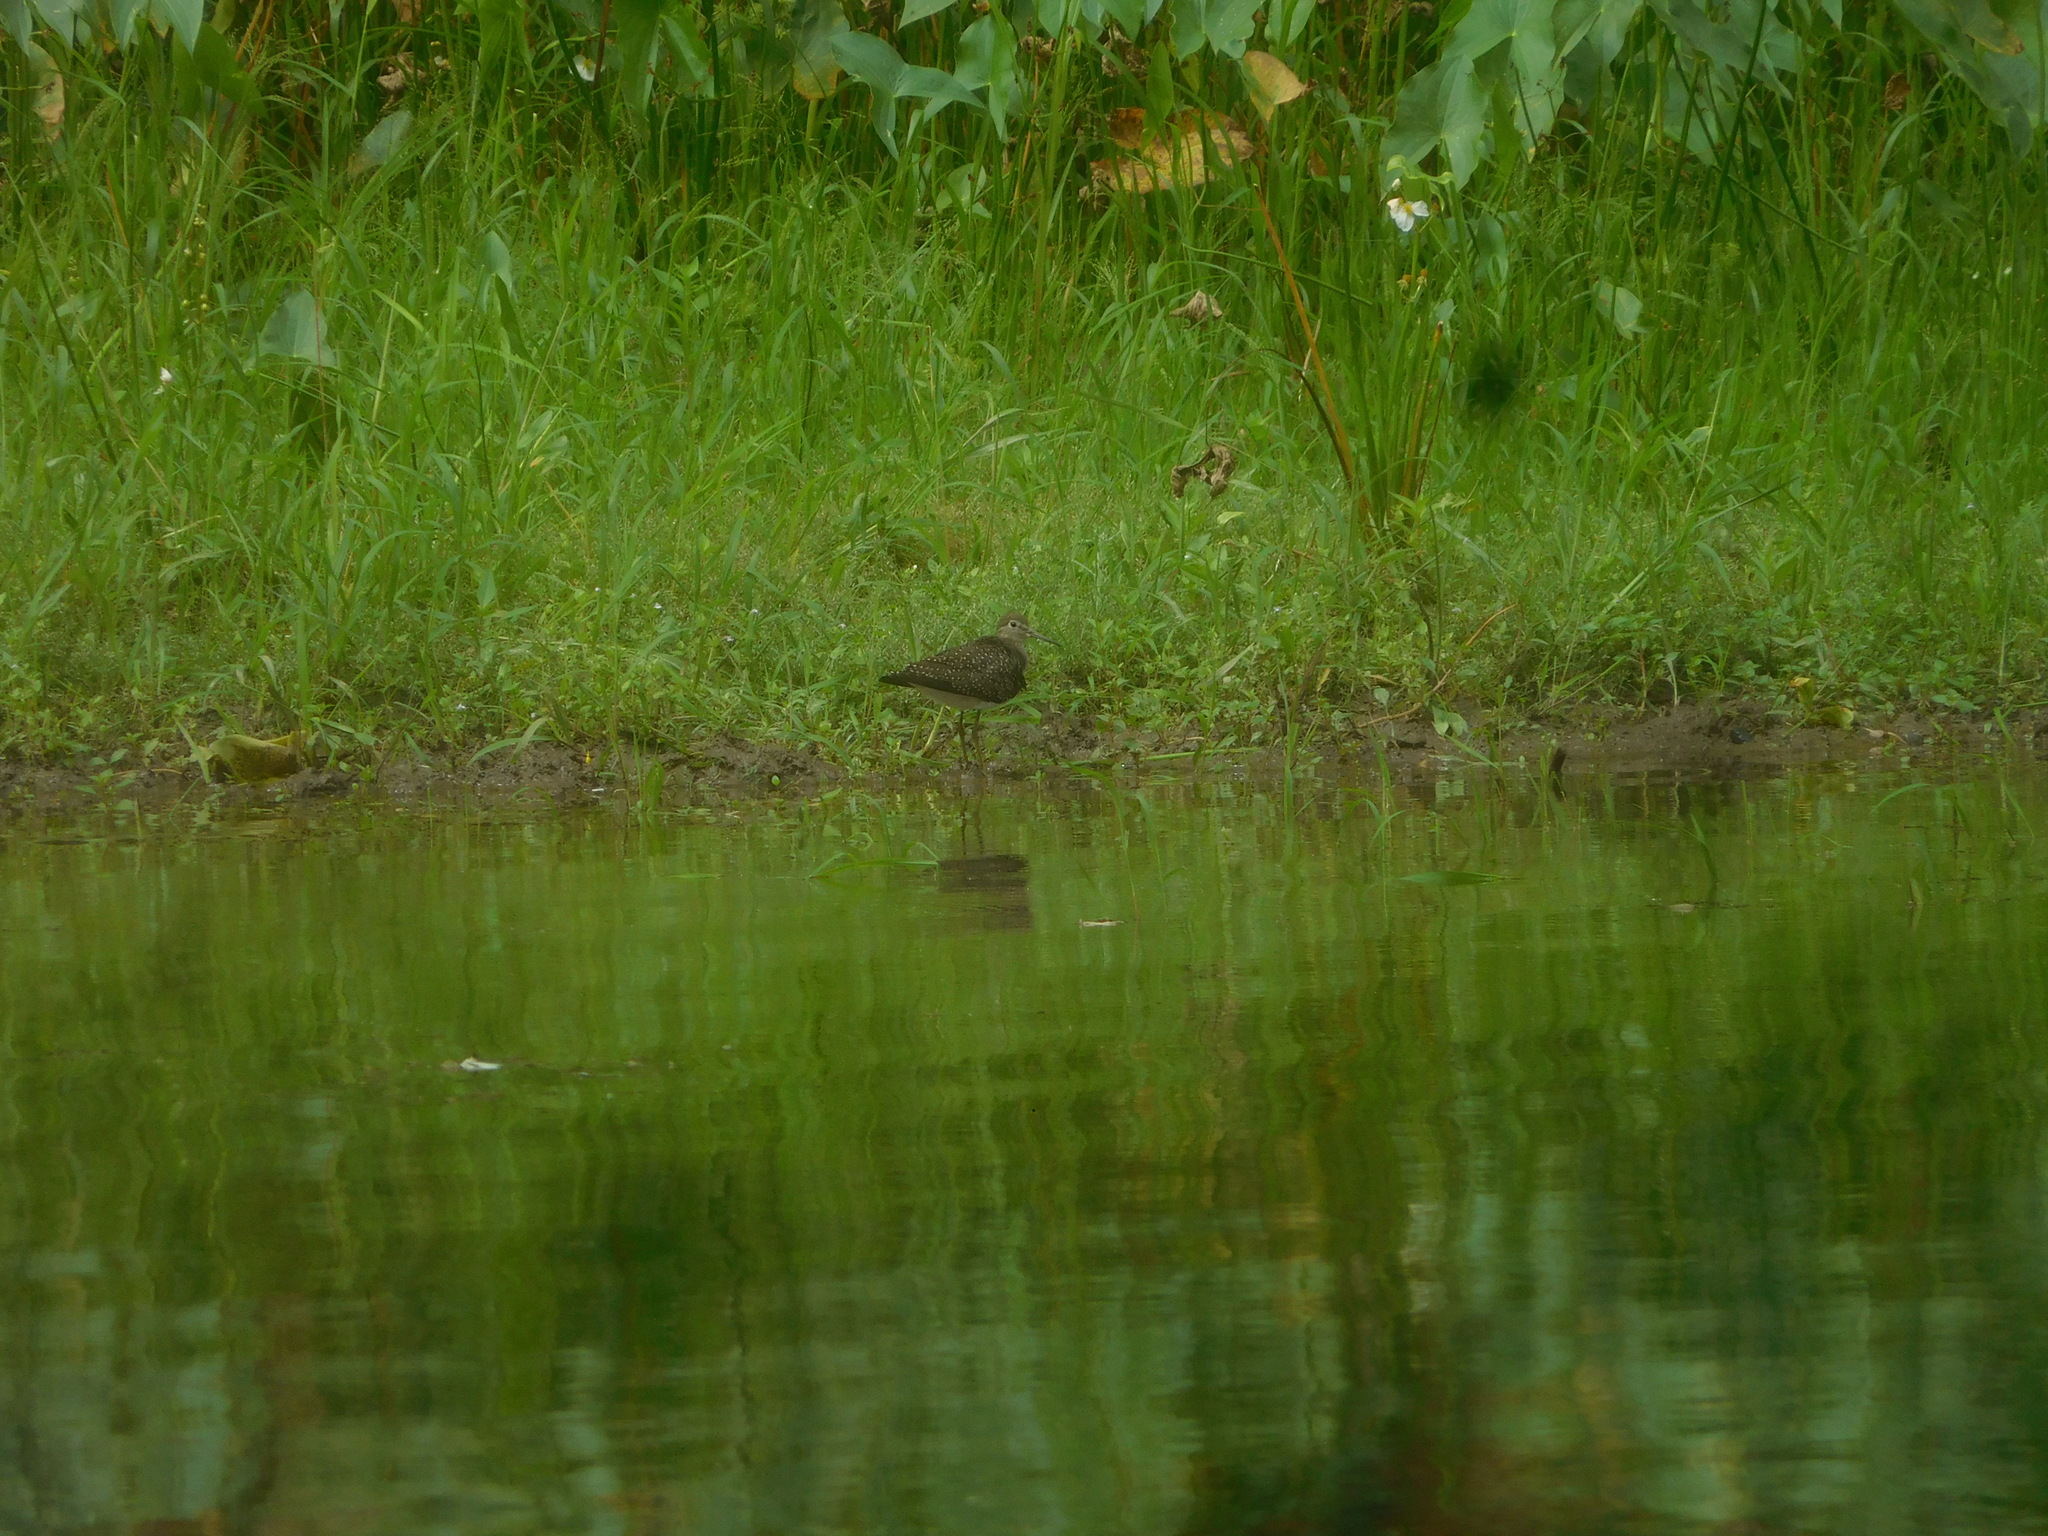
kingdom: Animalia
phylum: Chordata
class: Aves
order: Charadriiformes
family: Scolopacidae
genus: Tringa
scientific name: Tringa solitaria
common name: Solitary sandpiper
